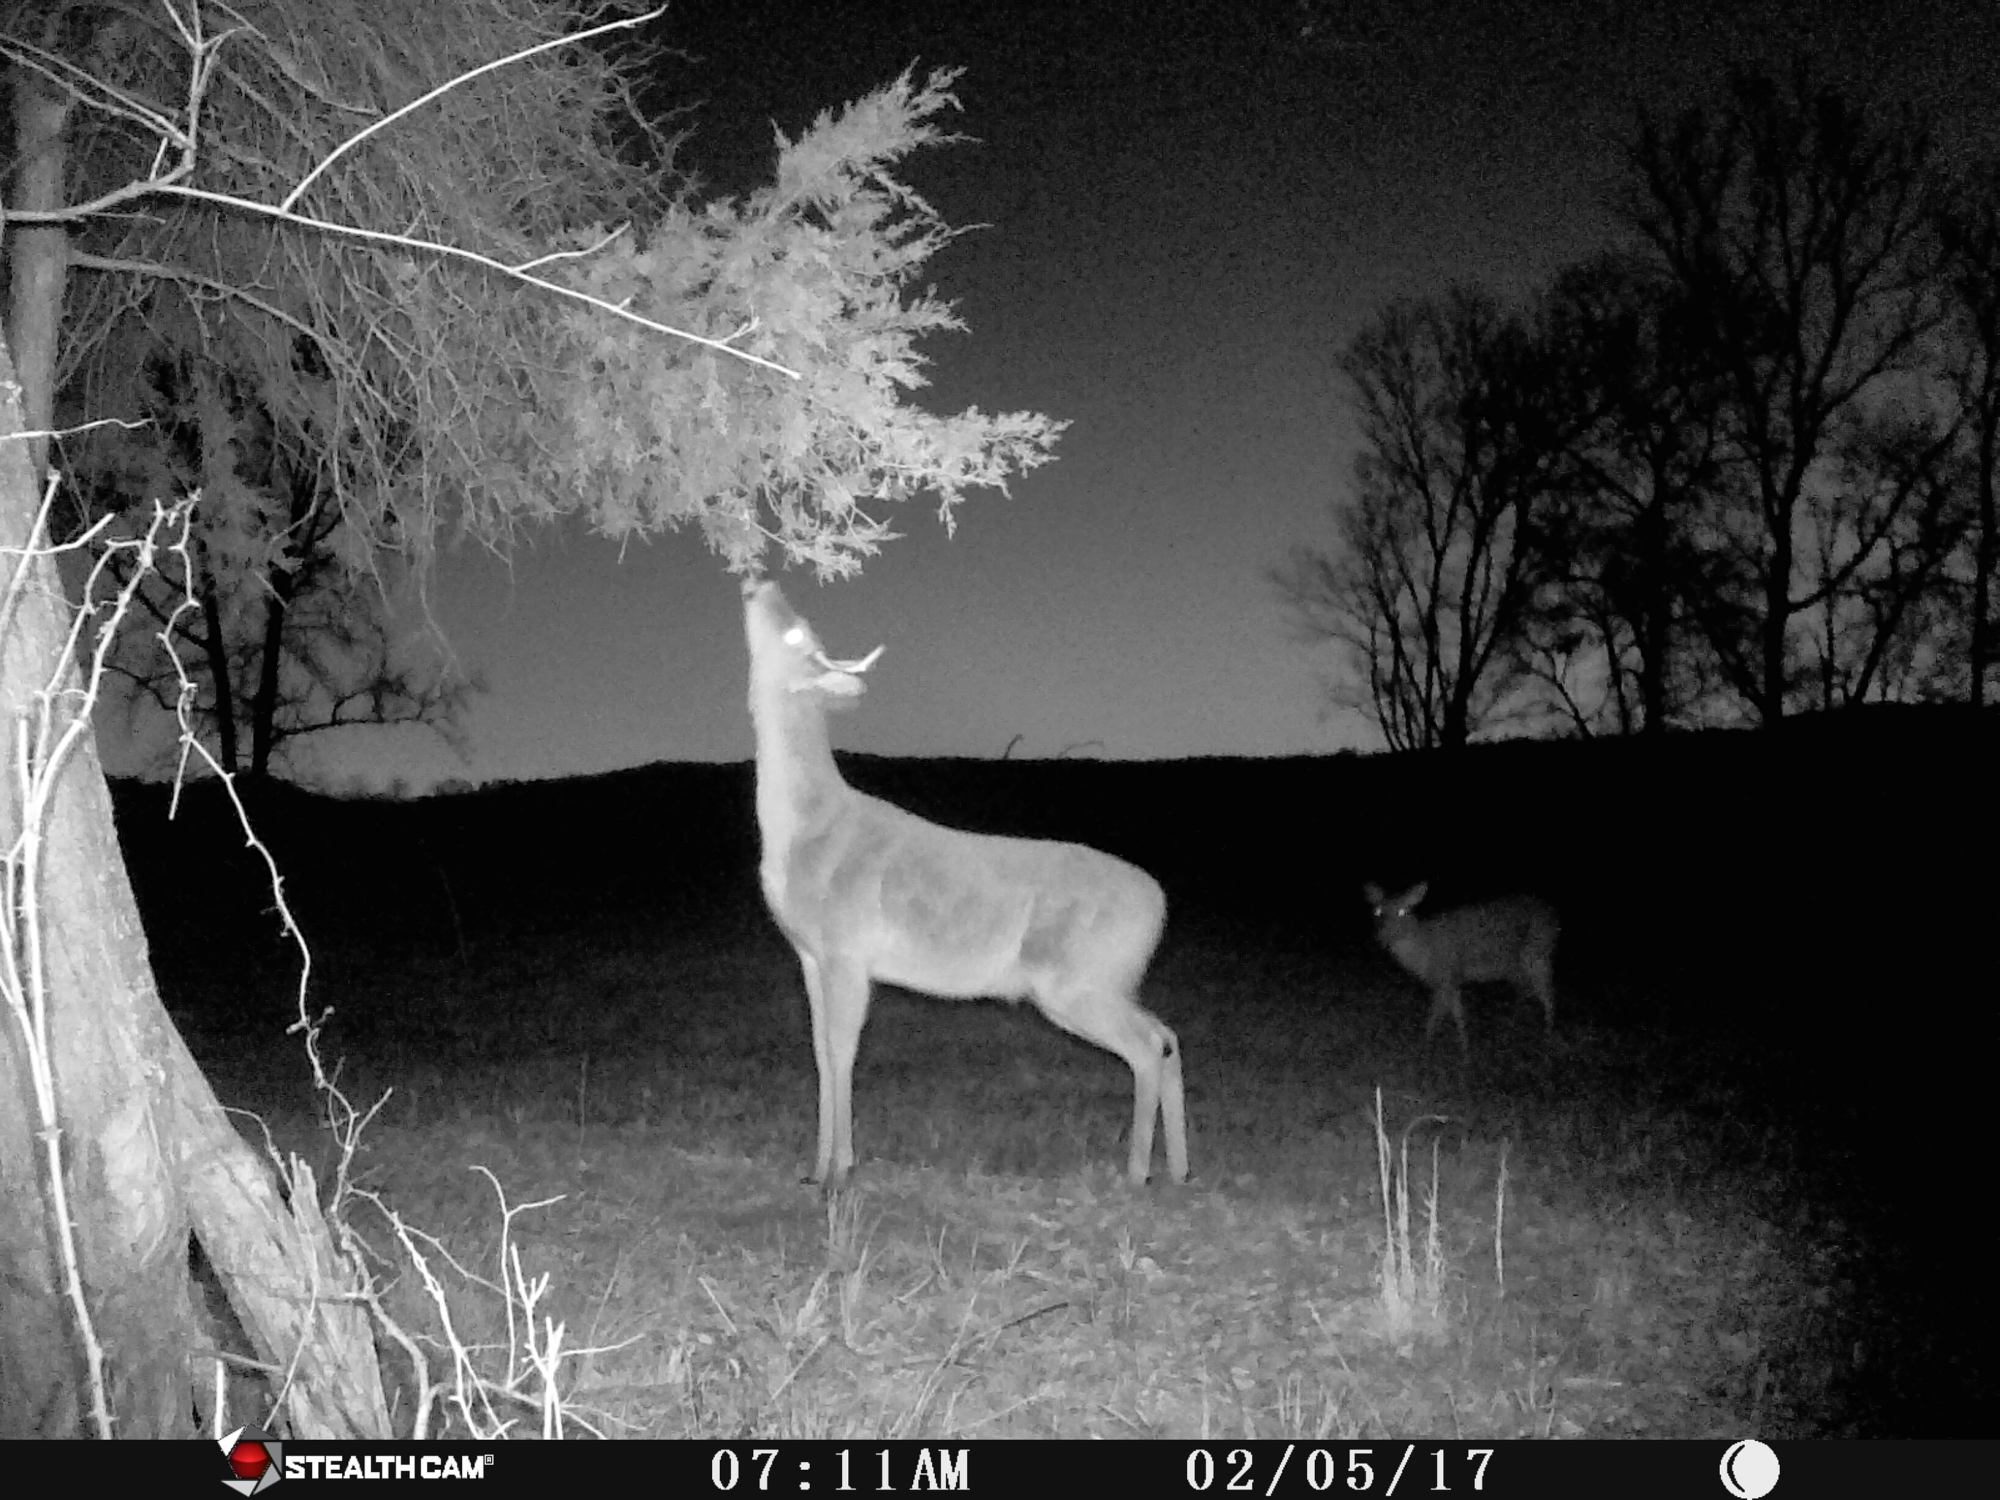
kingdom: Animalia
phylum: Chordata
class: Mammalia
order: Artiodactyla
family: Cervidae
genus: Odocoileus
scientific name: Odocoileus virginianus
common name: White-tailed deer
